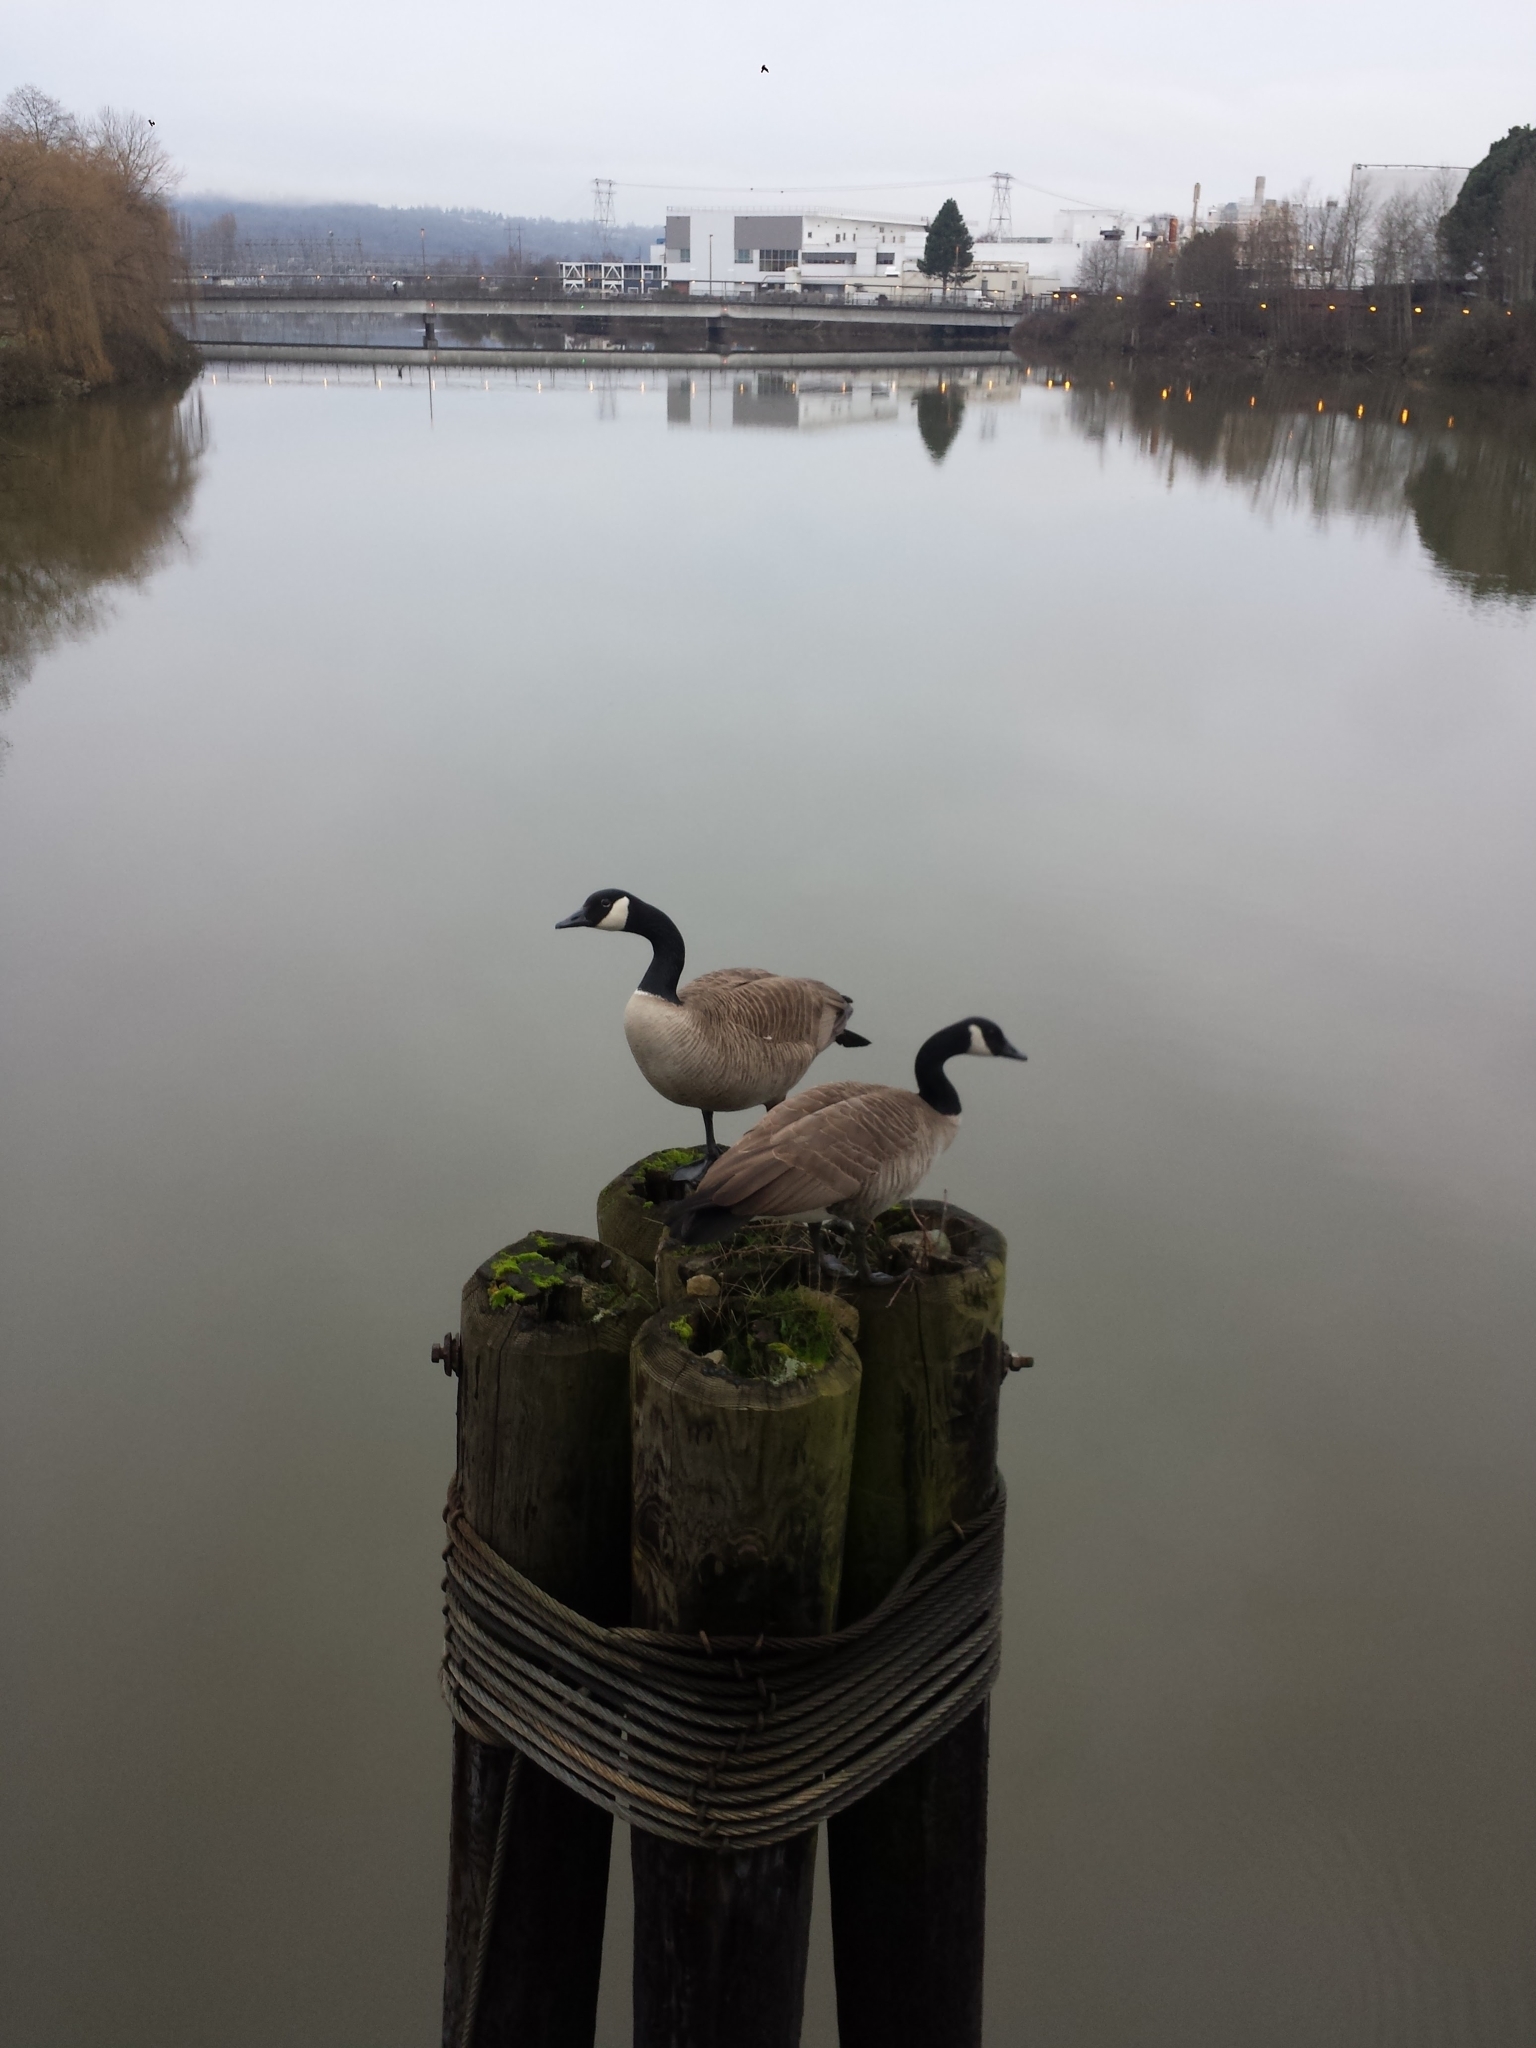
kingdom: Animalia
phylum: Chordata
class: Aves
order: Anseriformes
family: Anatidae
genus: Branta
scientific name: Branta canadensis
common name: Canada goose
